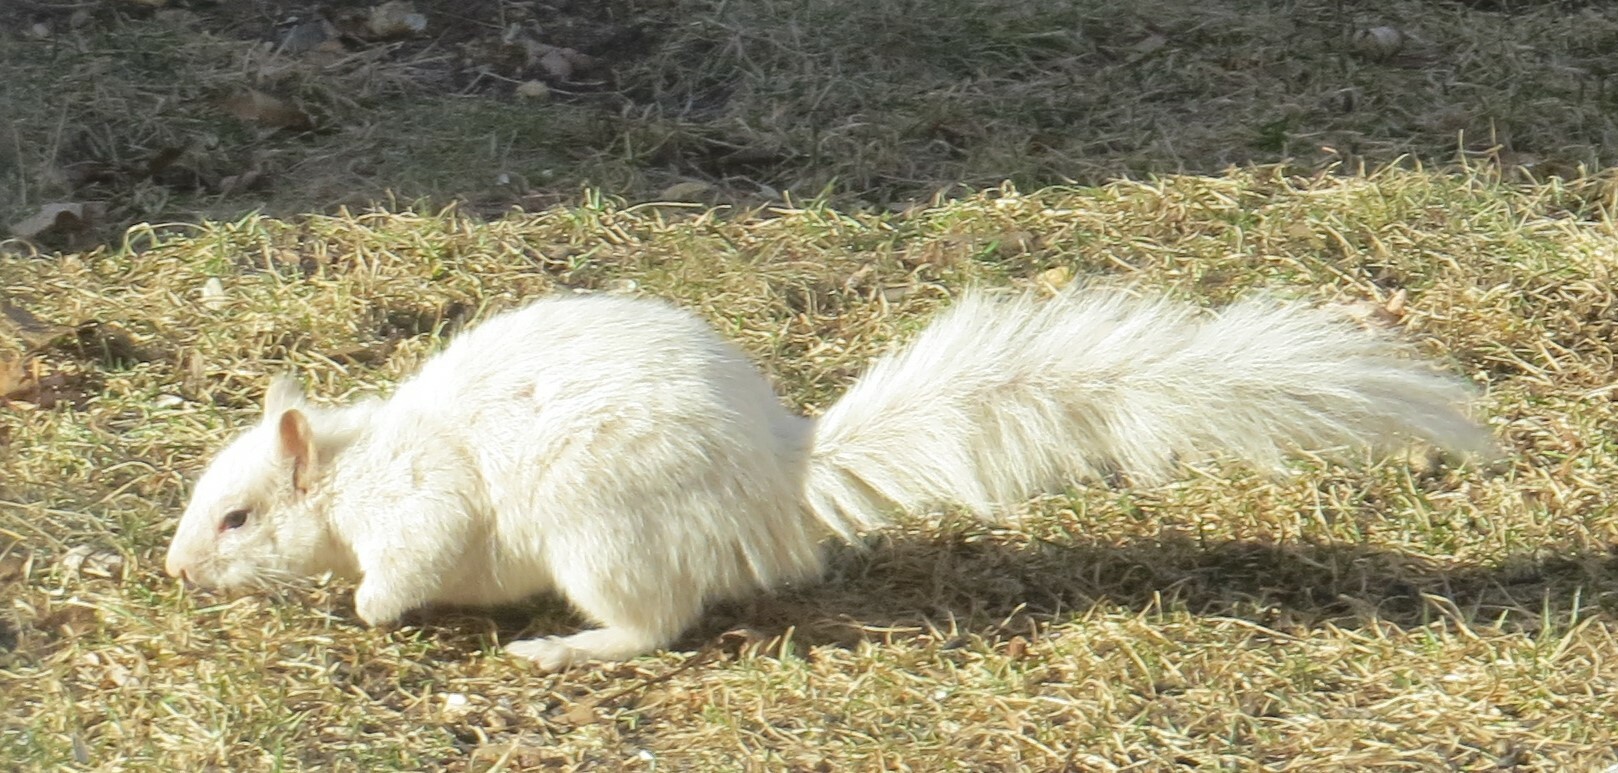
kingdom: Animalia
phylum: Chordata
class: Mammalia
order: Rodentia
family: Sciuridae
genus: Sciurus
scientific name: Sciurus carolinensis
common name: Eastern gray squirrel
